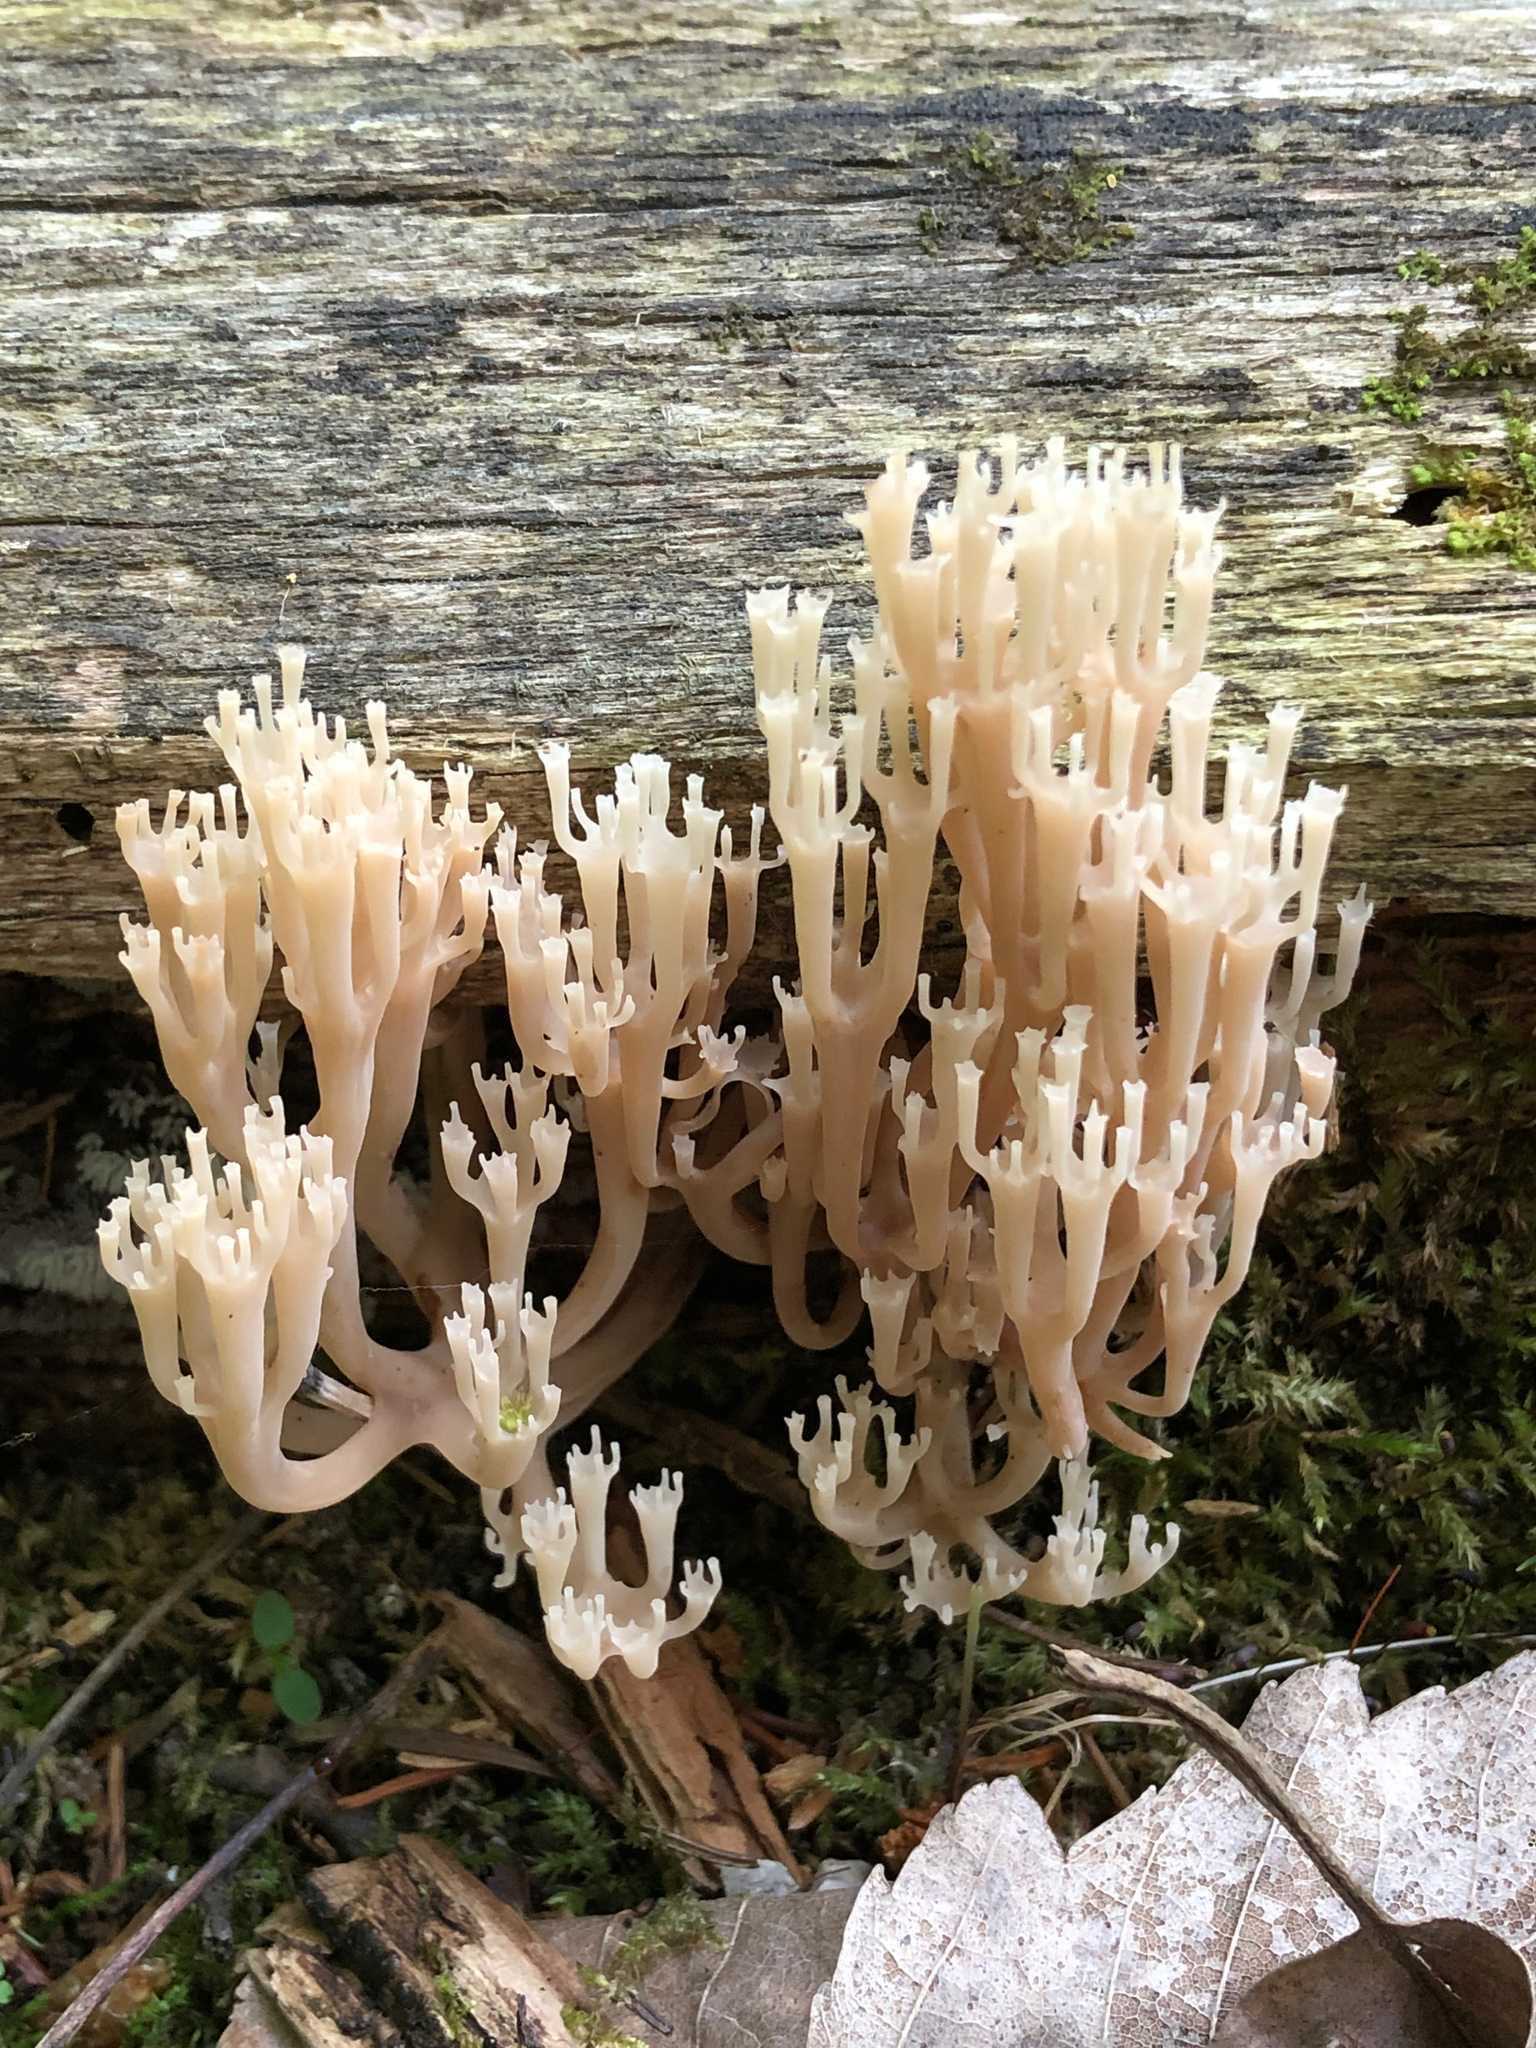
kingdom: Fungi
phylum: Basidiomycota
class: Agaricomycetes
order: Russulales
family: Auriscalpiaceae
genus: Artomyces
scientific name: Artomyces pyxidatus
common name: Crown-tipped coral fungus
